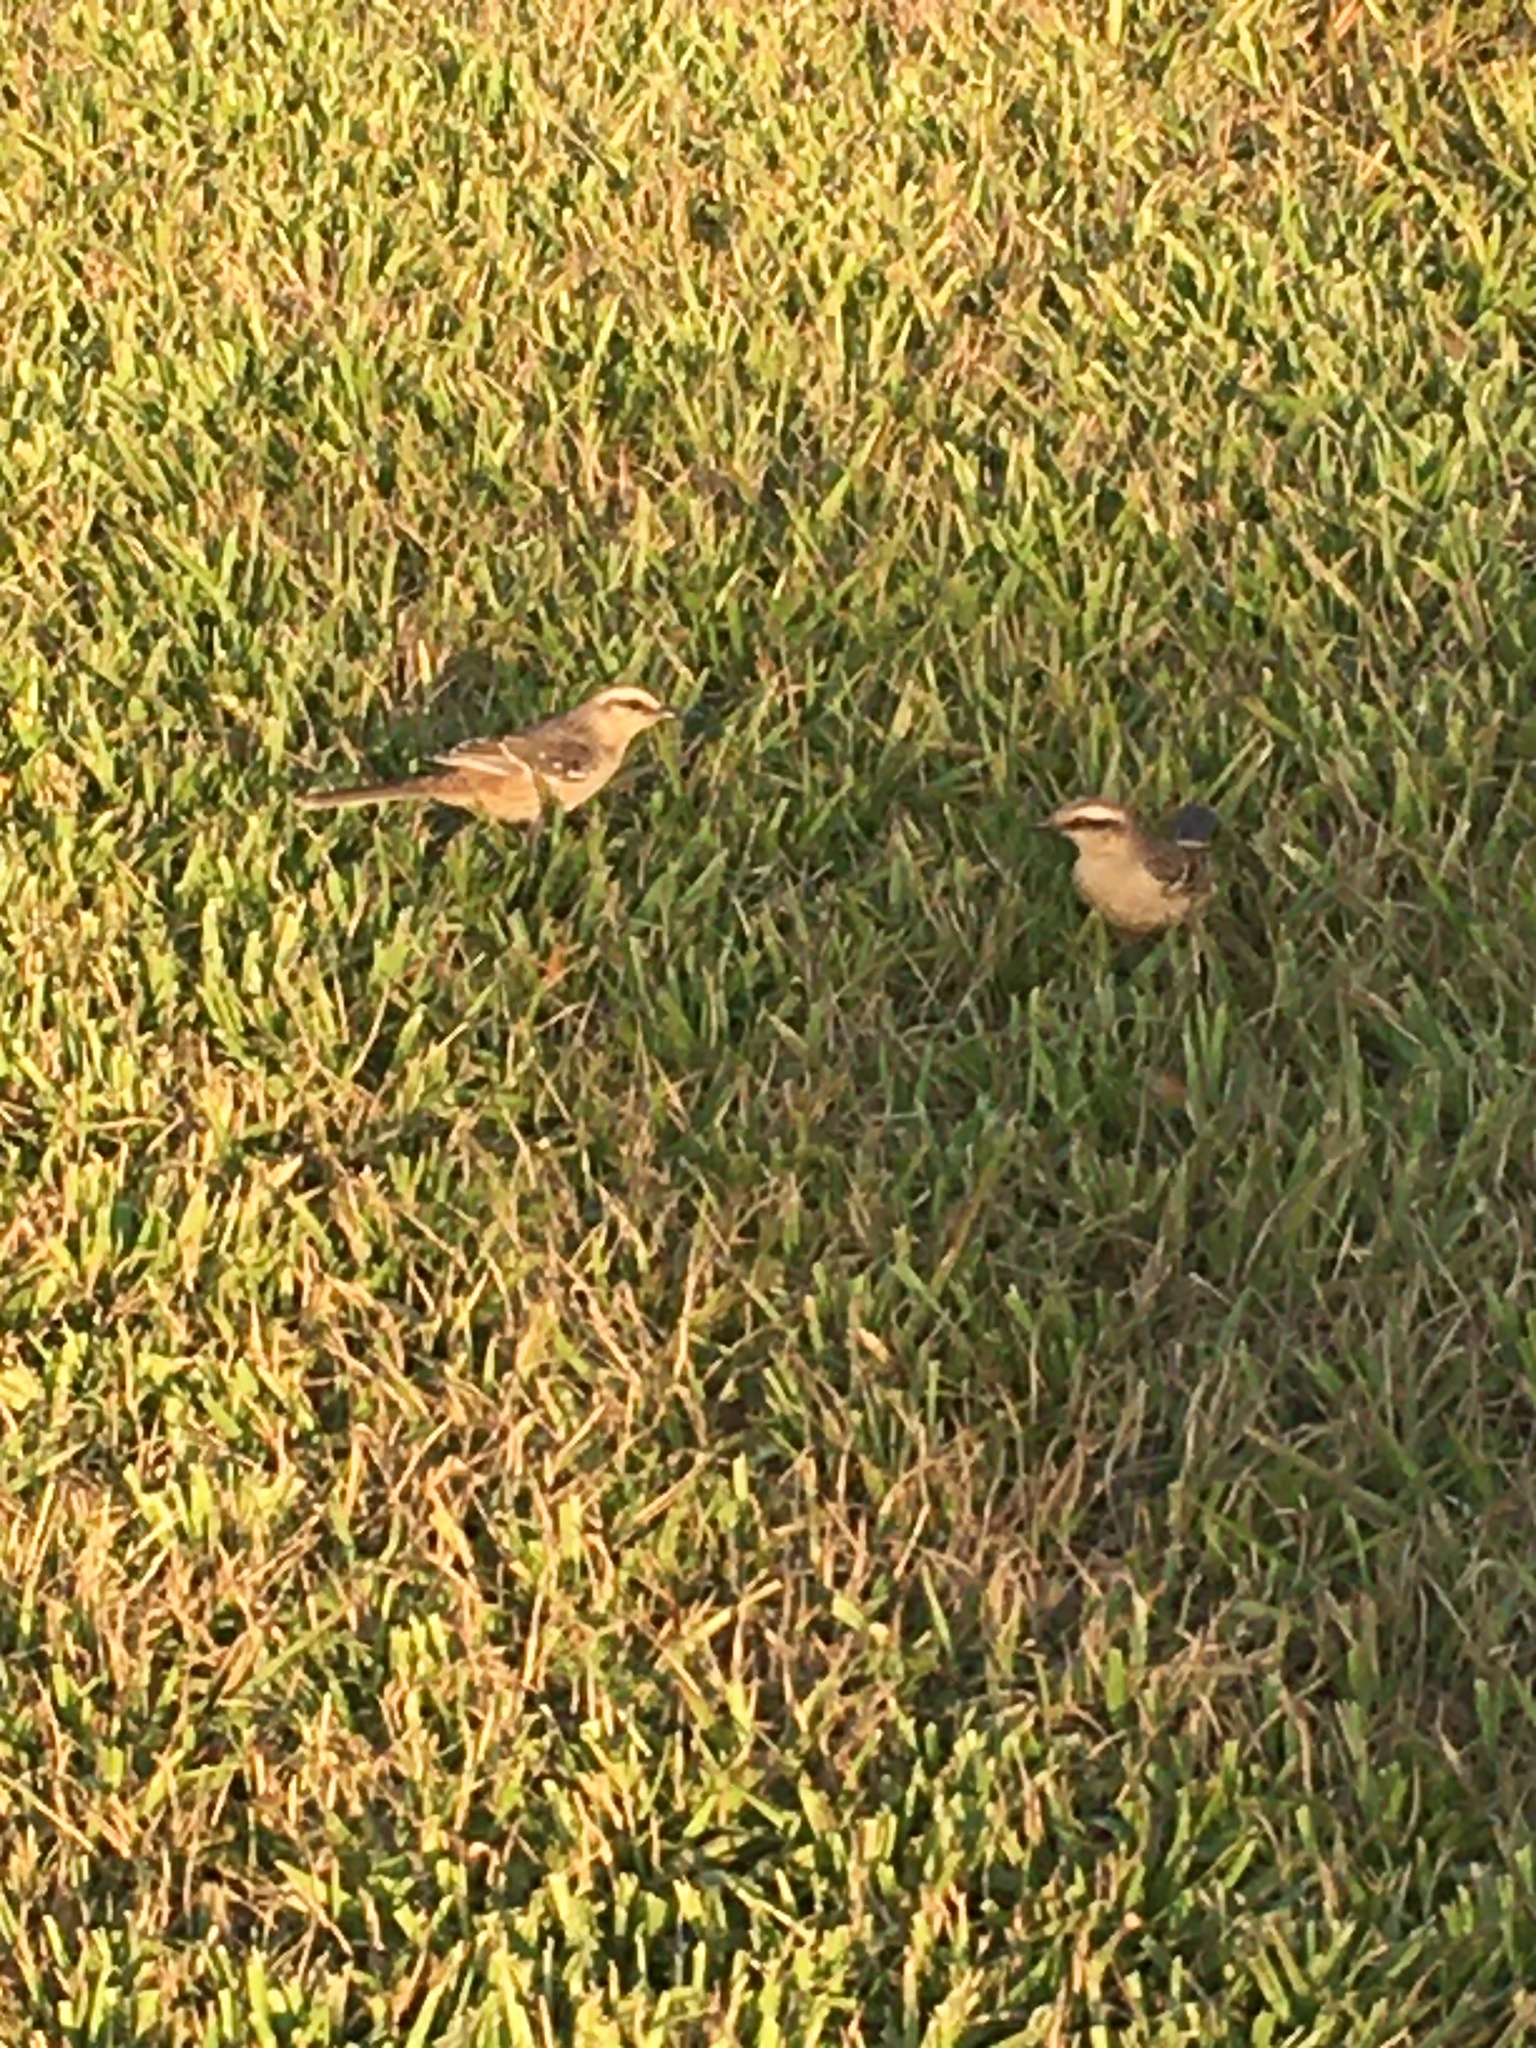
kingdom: Animalia
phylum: Chordata
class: Aves
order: Passeriformes
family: Mimidae
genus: Mimus
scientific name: Mimus saturninus
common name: Chalk-browed mockingbird
